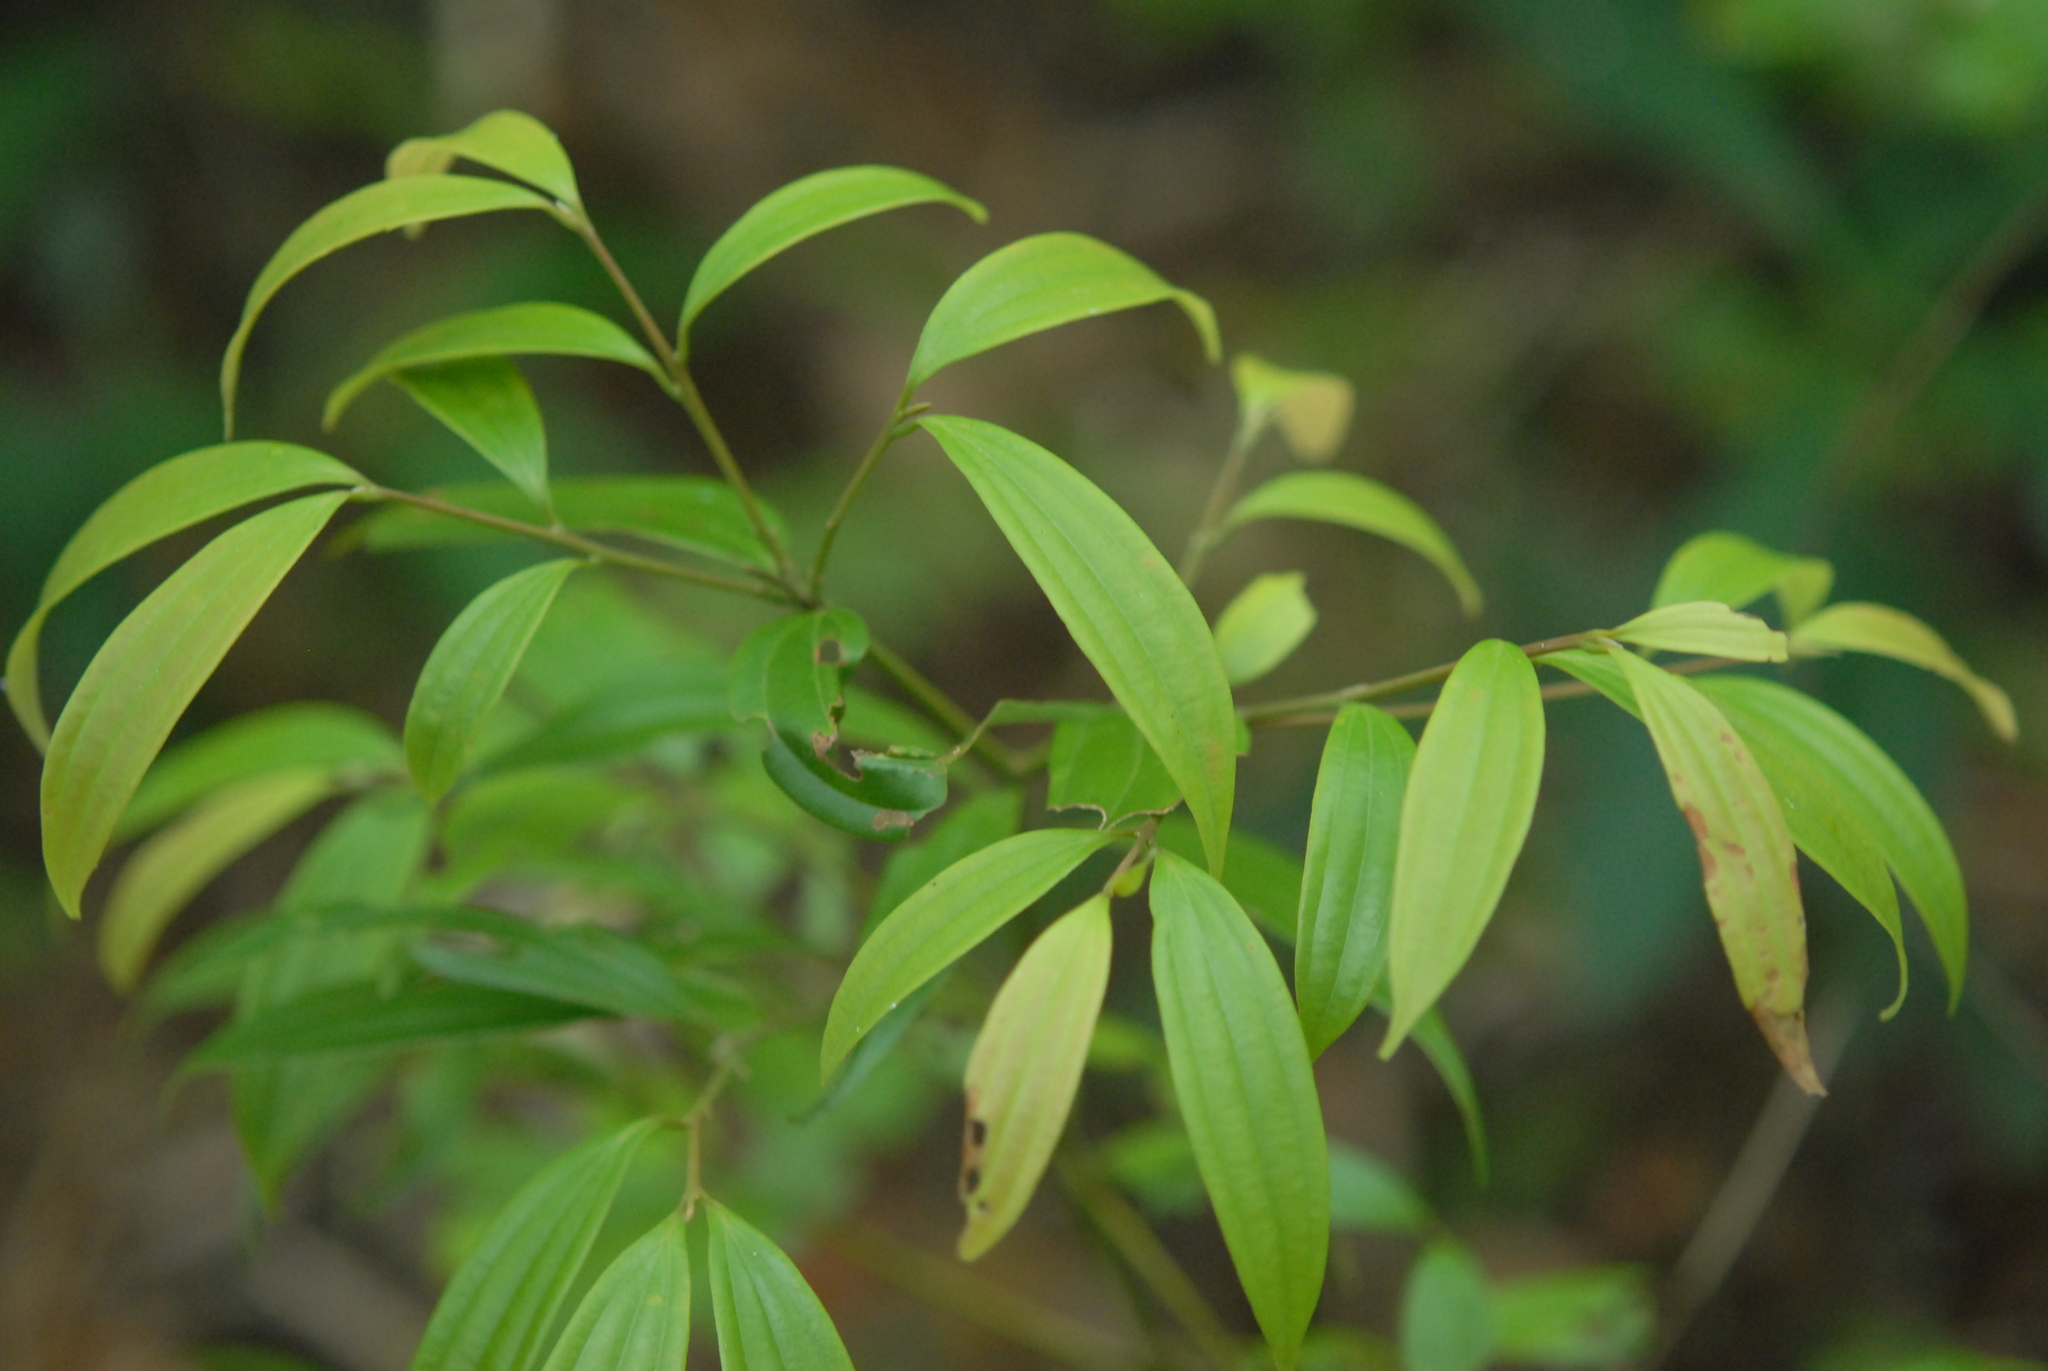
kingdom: Plantae
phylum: Tracheophyta
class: Magnoliopsida
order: Laurales
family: Lauraceae
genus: Cinnamomum
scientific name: Cinnamomum subavenium
